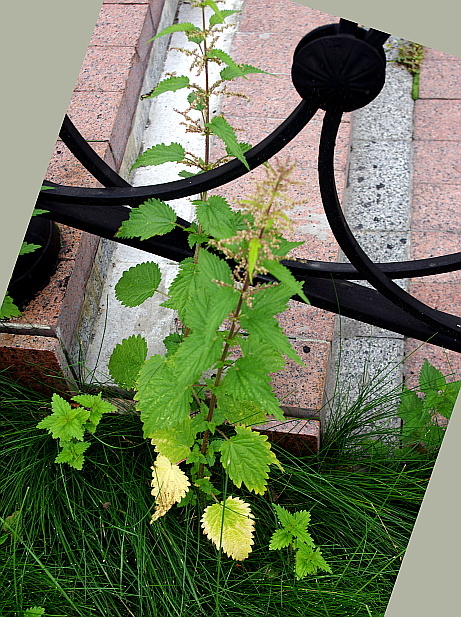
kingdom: Plantae
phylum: Tracheophyta
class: Magnoliopsida
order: Rosales
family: Urticaceae
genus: Urtica
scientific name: Urtica dioica
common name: Common nettle
